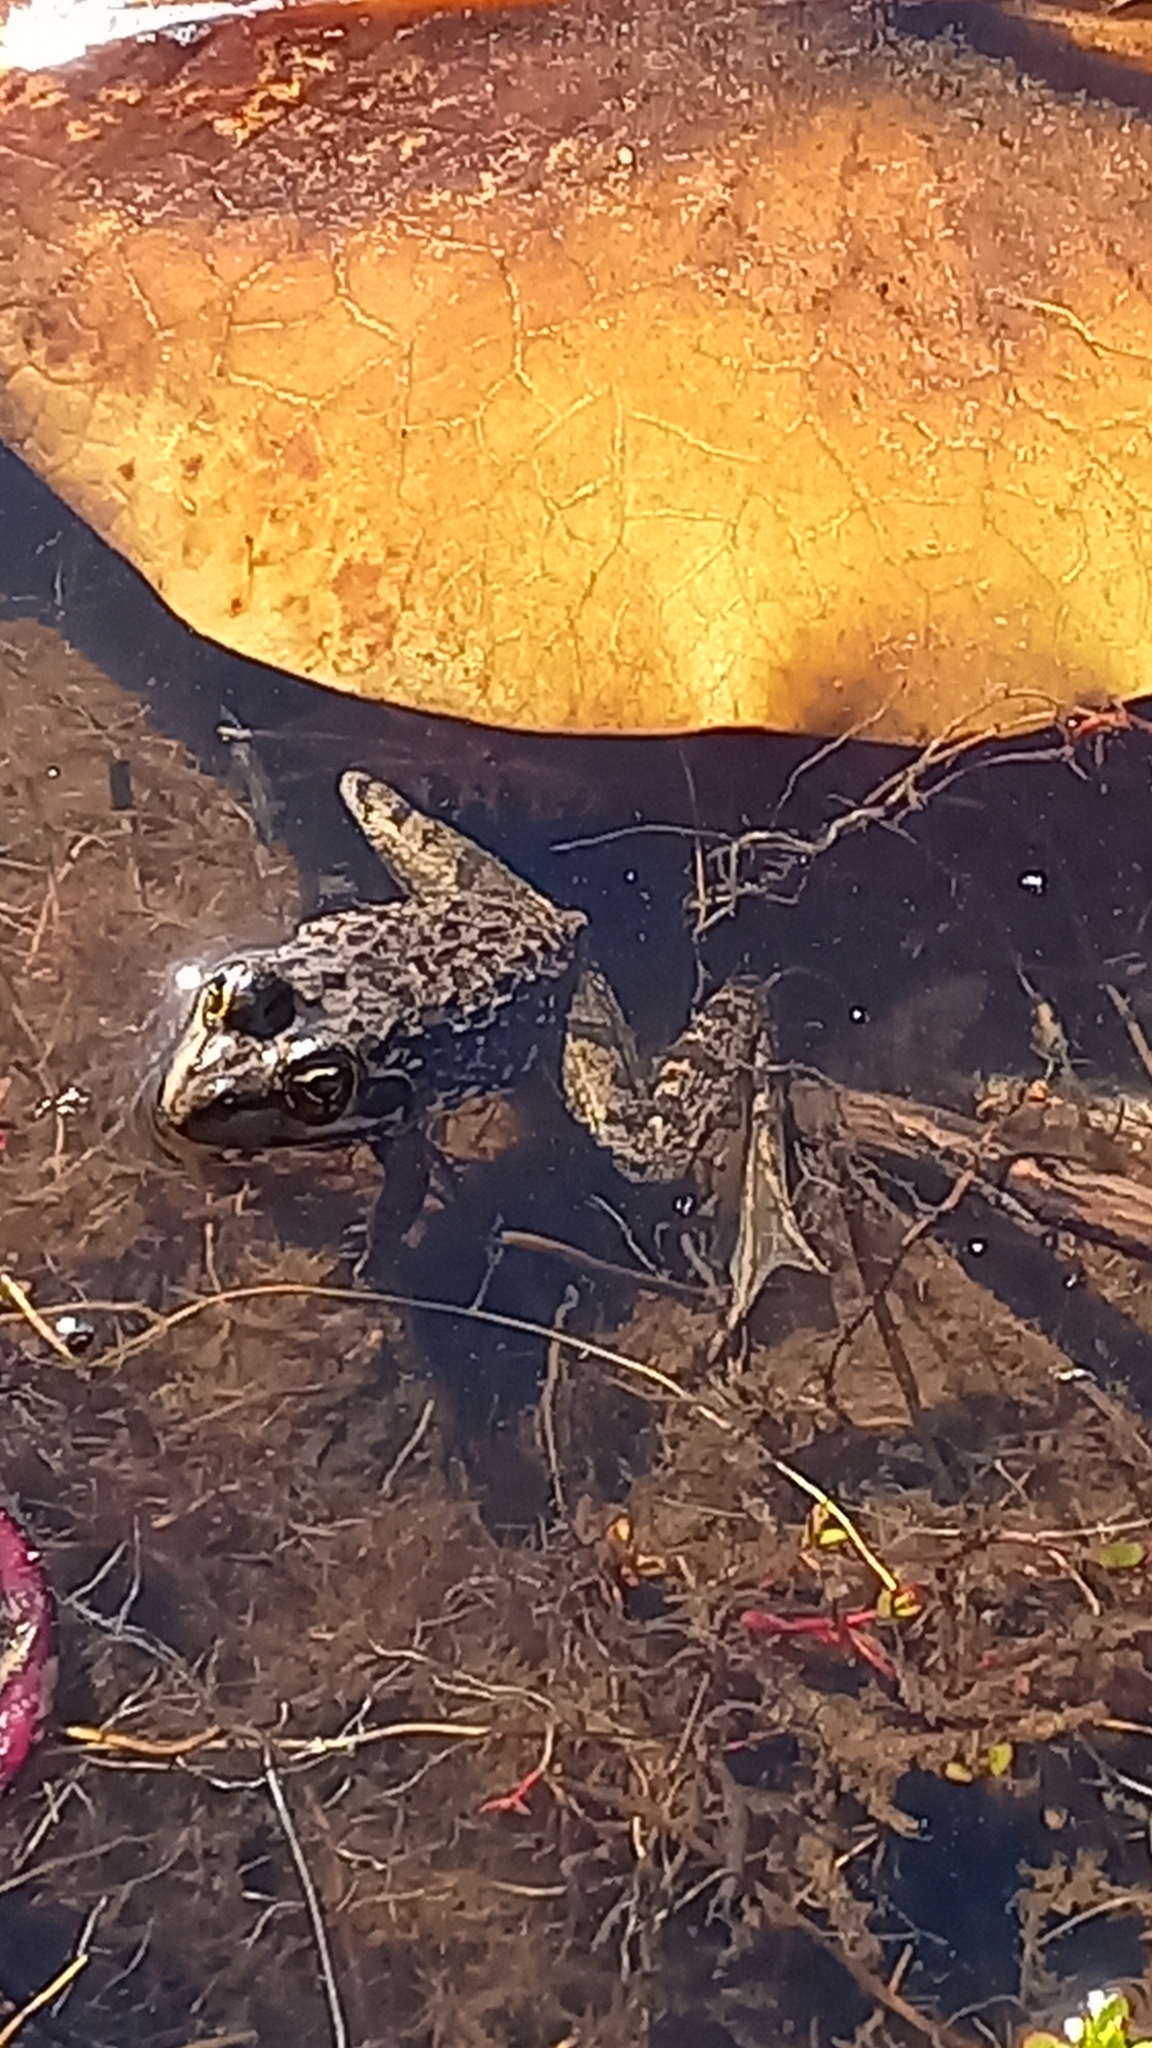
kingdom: Animalia
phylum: Chordata
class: Amphibia
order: Anura
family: Pyxicephalidae
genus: Amietia
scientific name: Amietia fuscigula
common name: Cape rana
